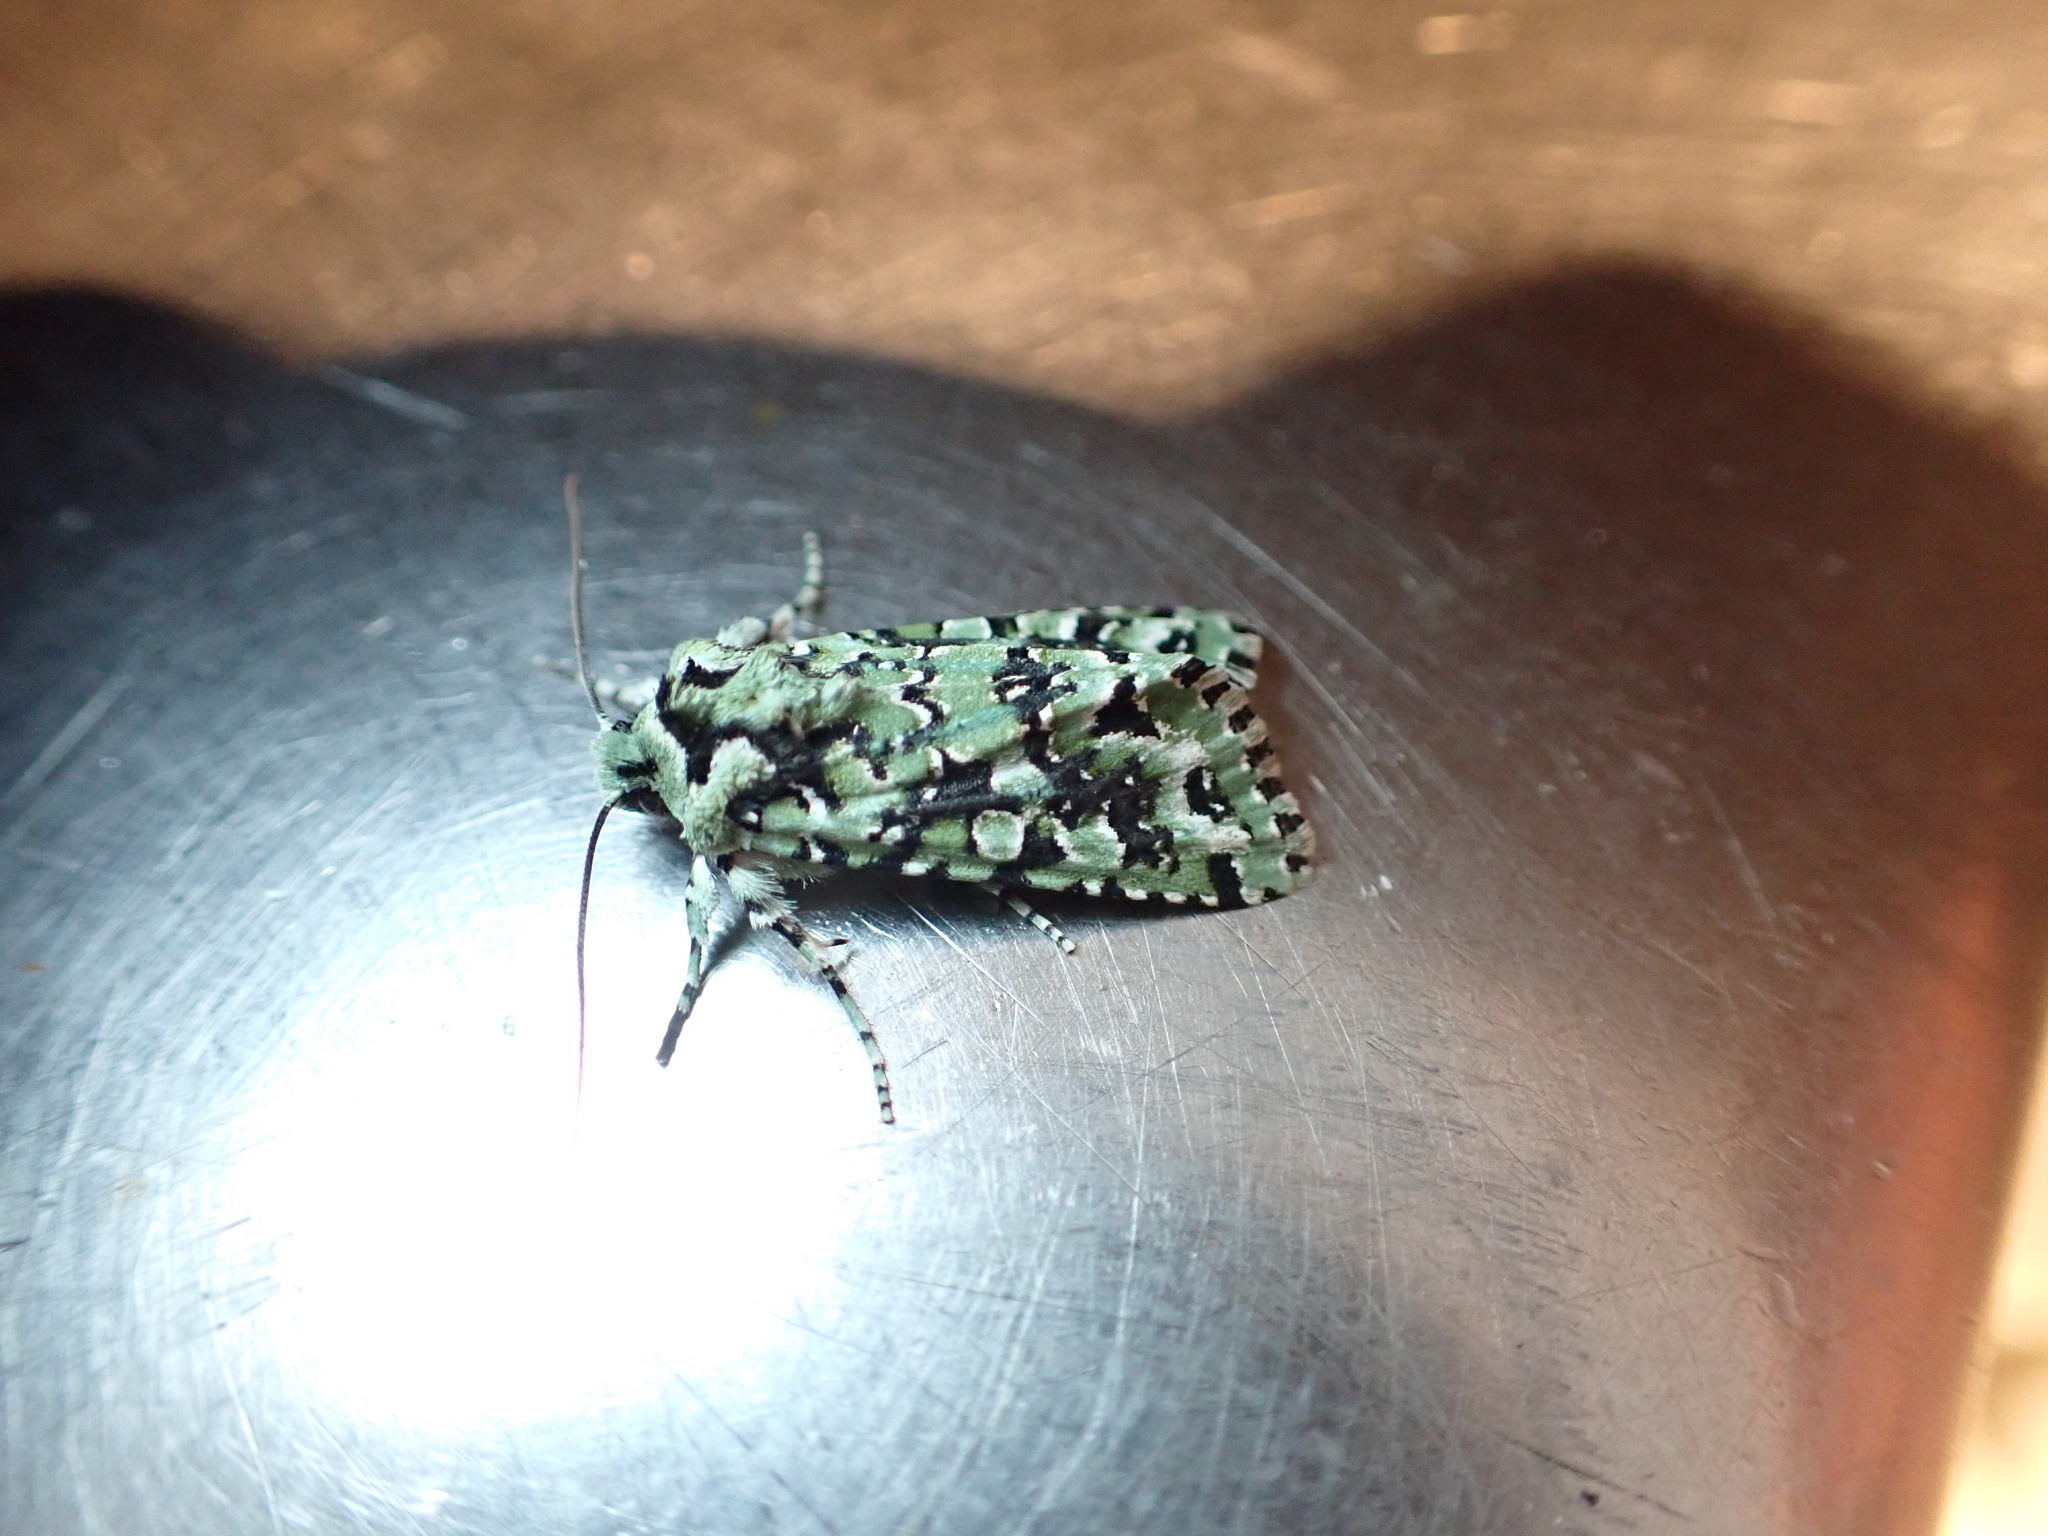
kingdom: Animalia
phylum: Arthropoda
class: Insecta
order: Lepidoptera
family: Noctuidae
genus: Meterana
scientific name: Meterana
